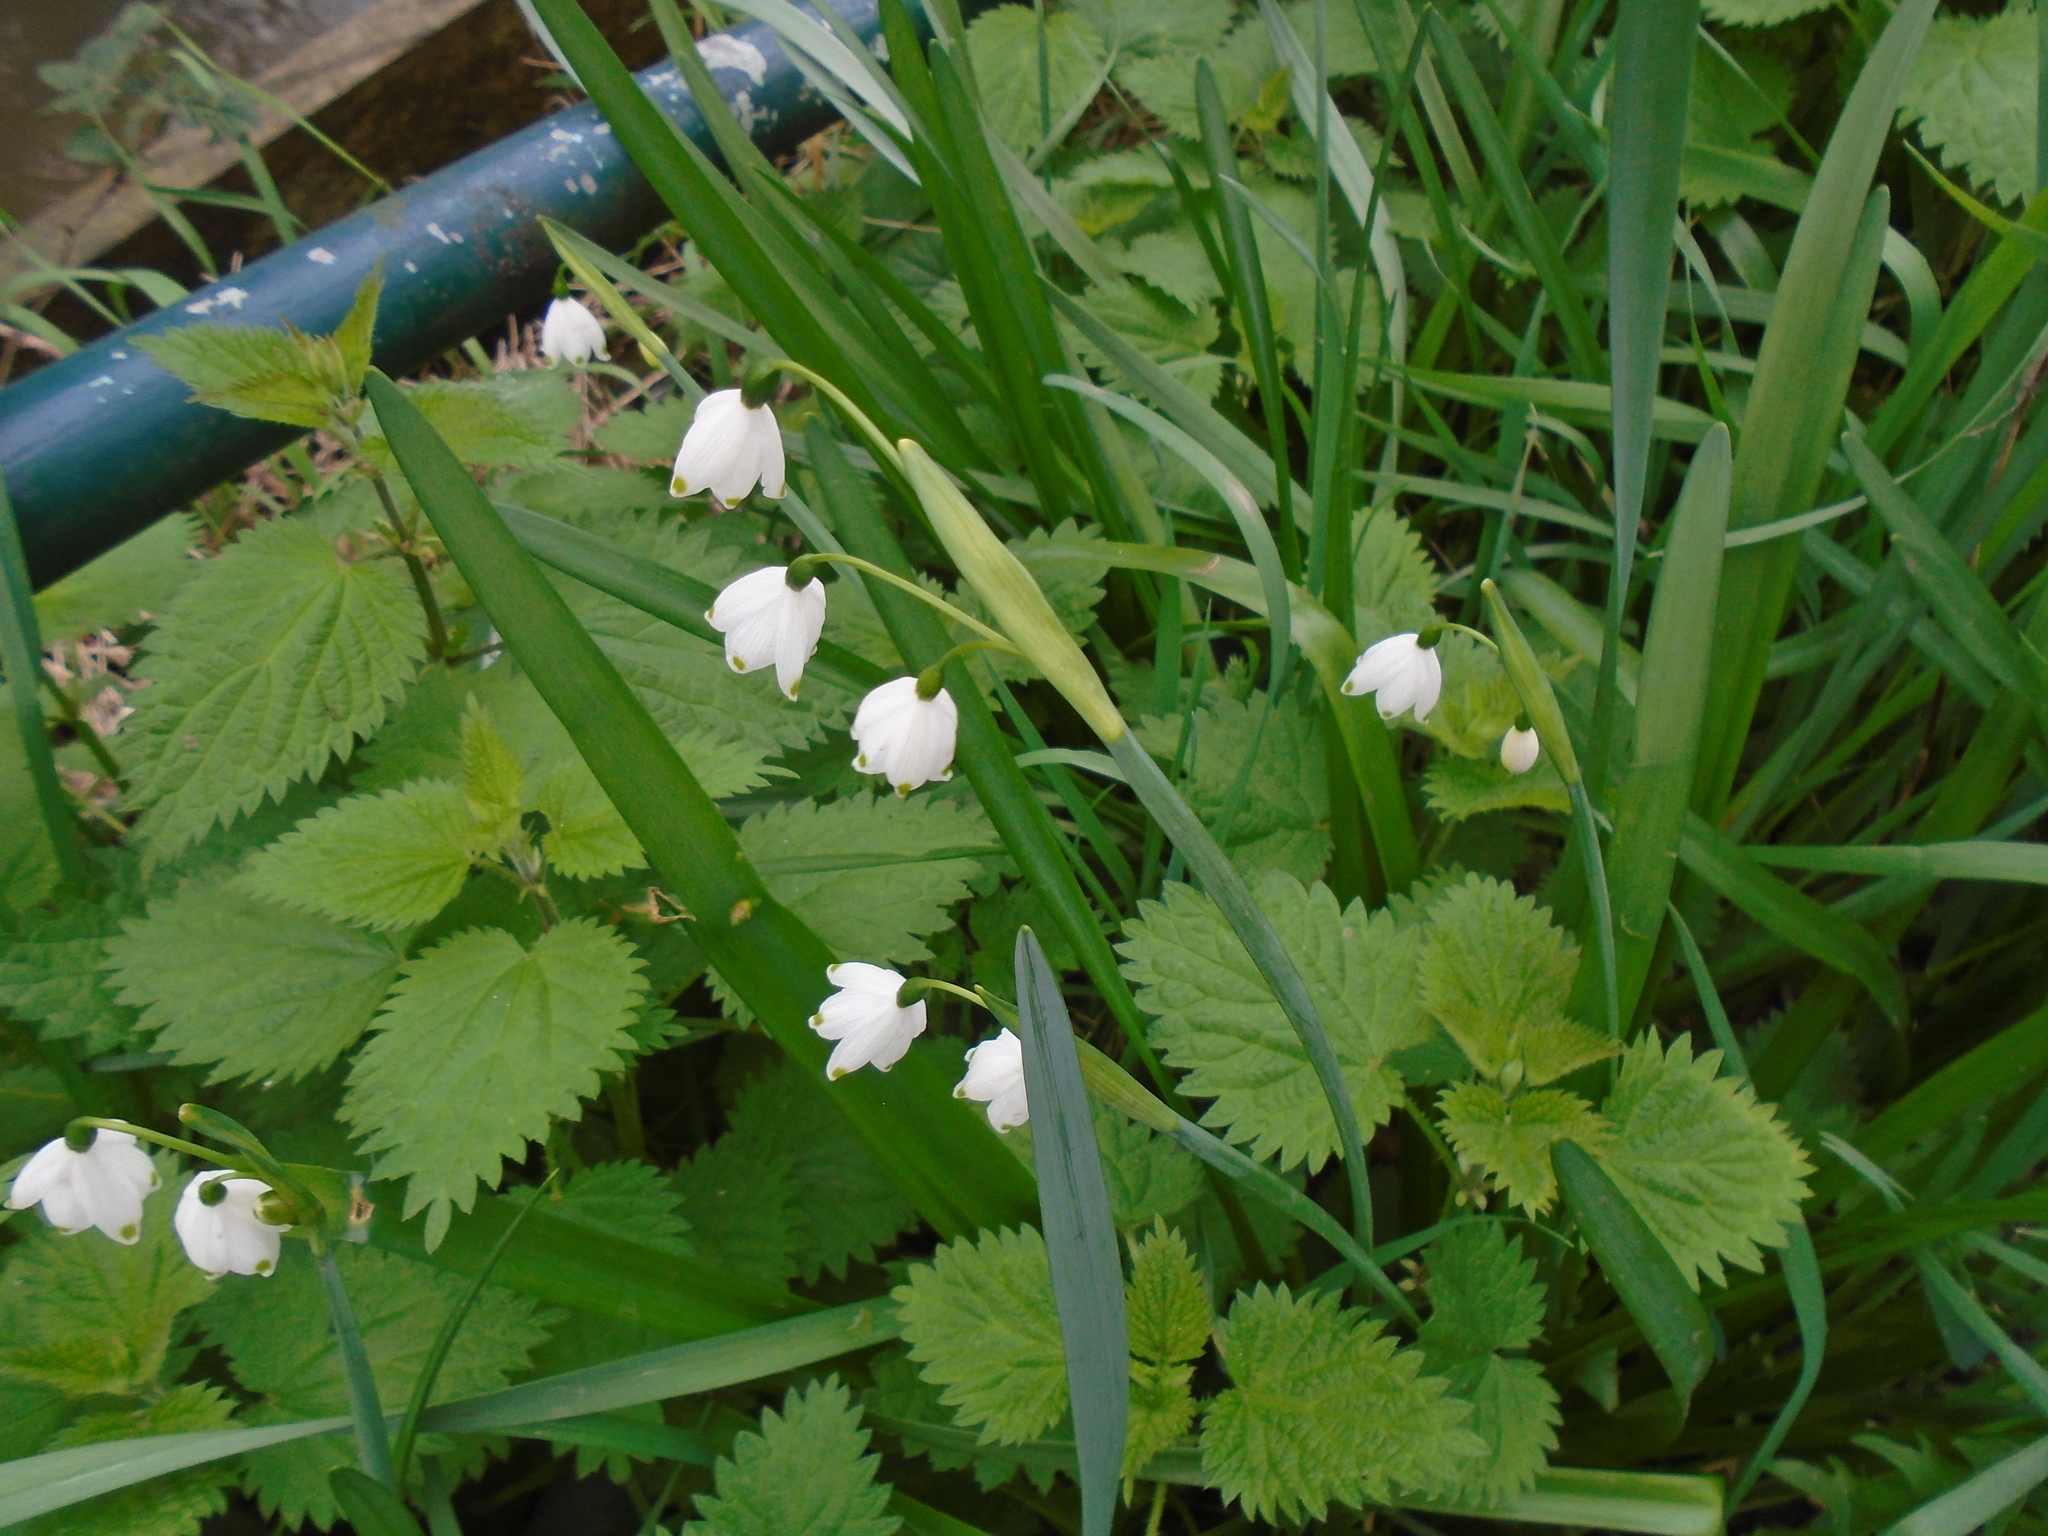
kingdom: Plantae
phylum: Tracheophyta
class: Liliopsida
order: Asparagales
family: Amaryllidaceae
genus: Leucojum
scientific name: Leucojum aestivum
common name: Summer snowflake
